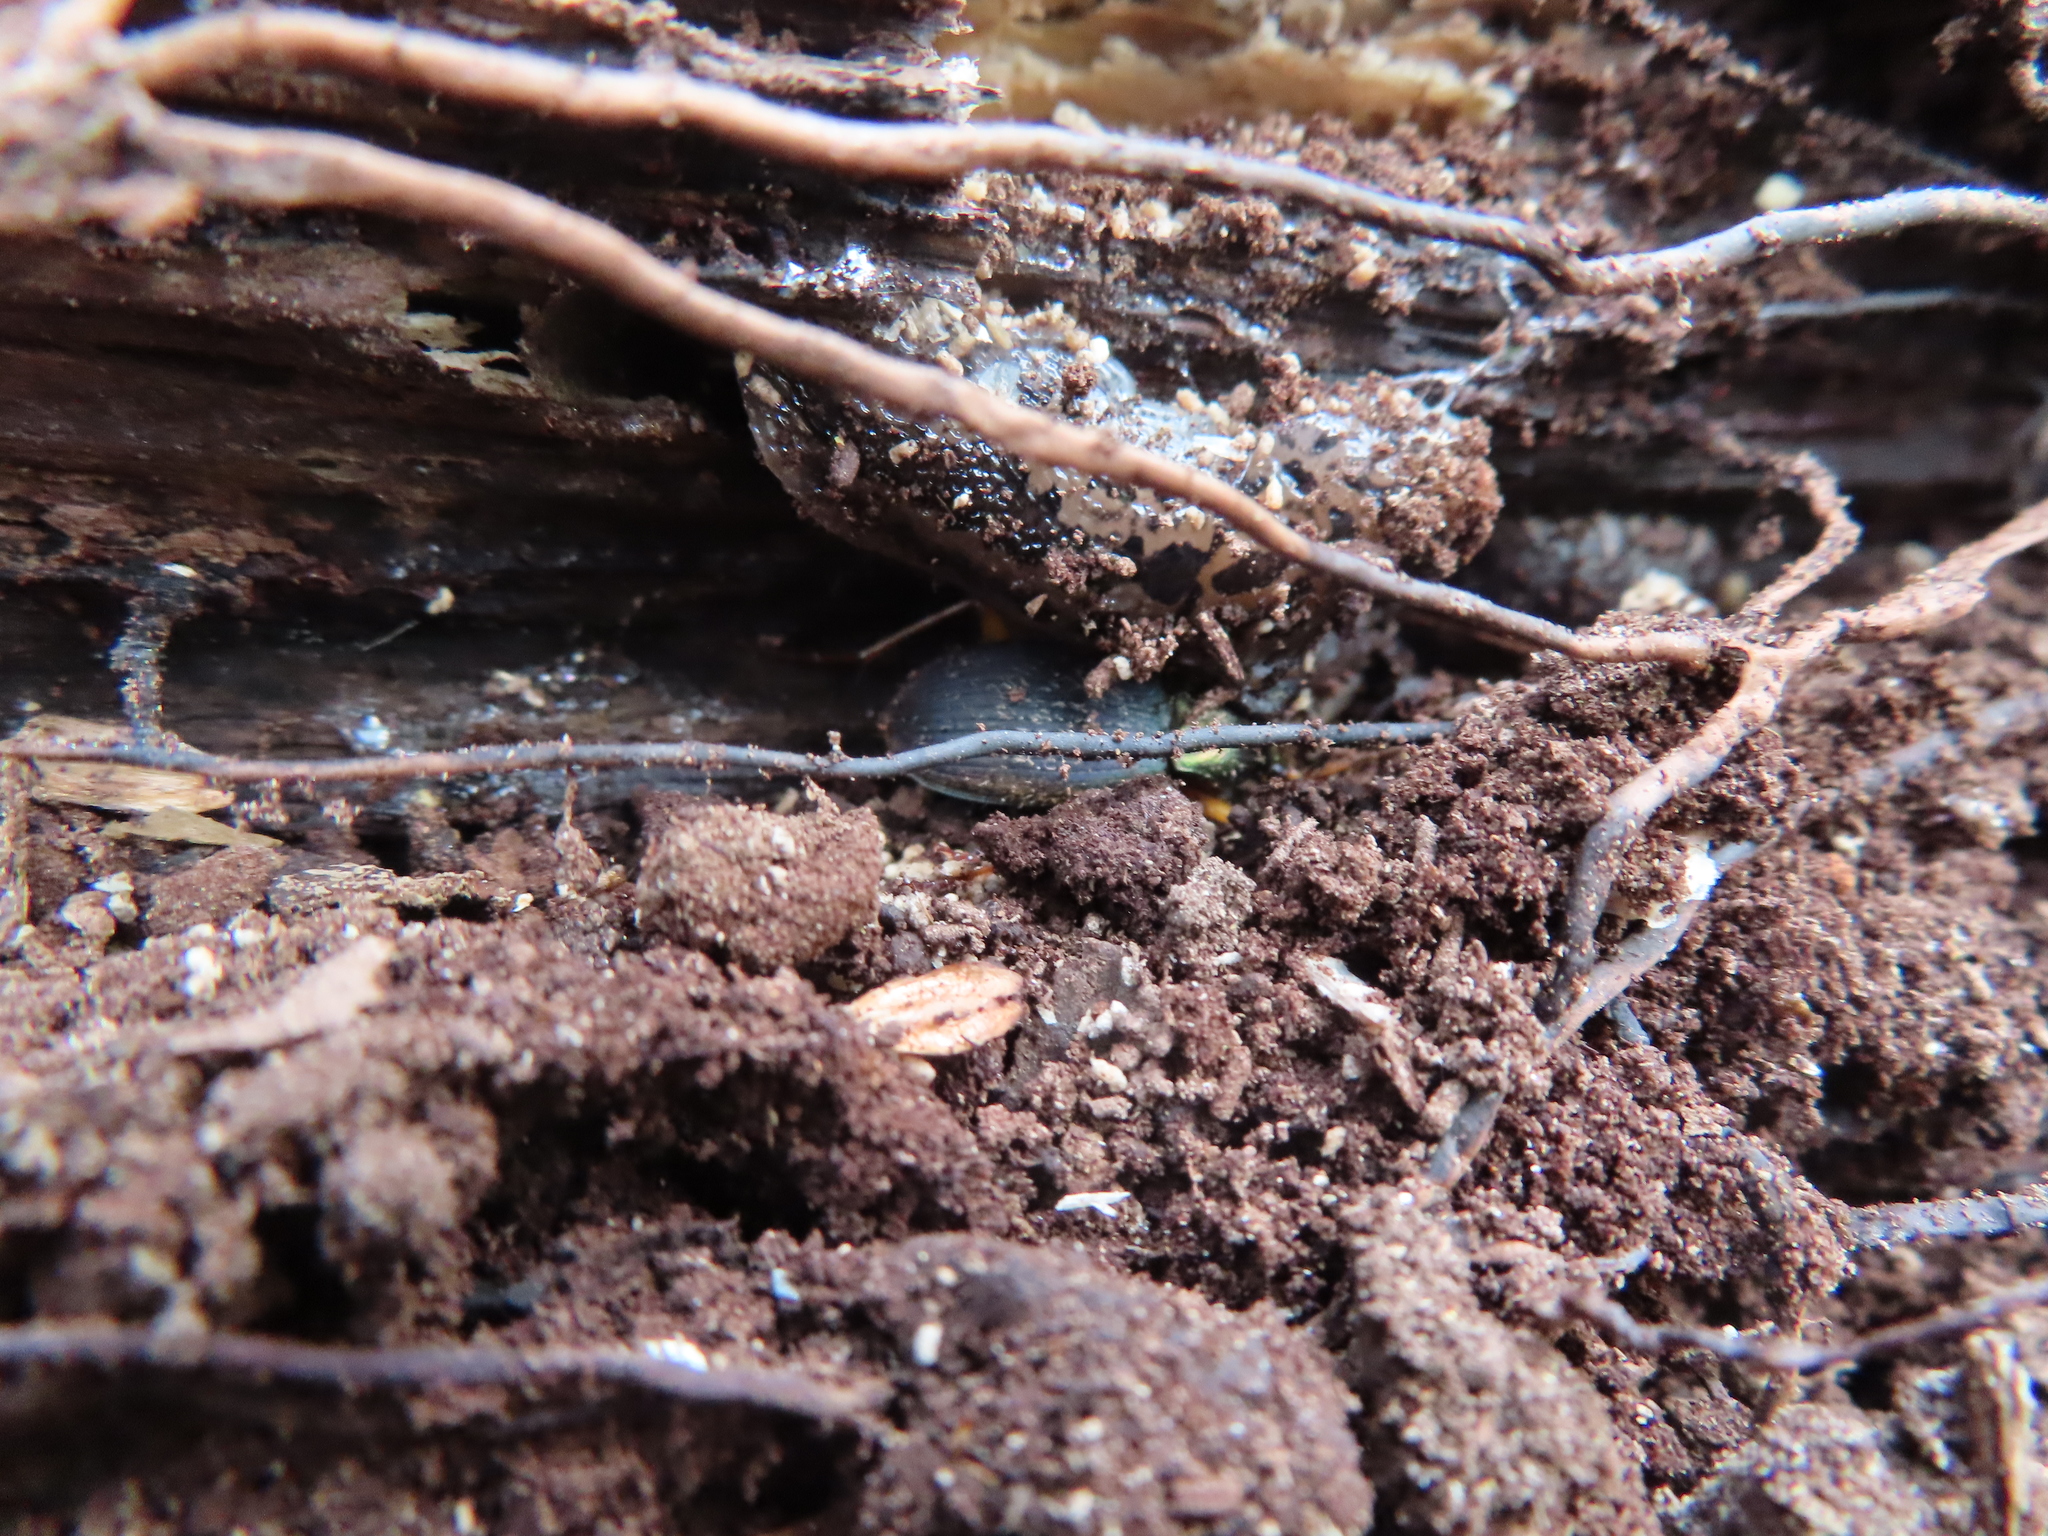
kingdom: Animalia
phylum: Arthropoda
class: Insecta
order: Coleoptera
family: Carabidae
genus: Chlaenius
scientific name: Chlaenius aestivus
